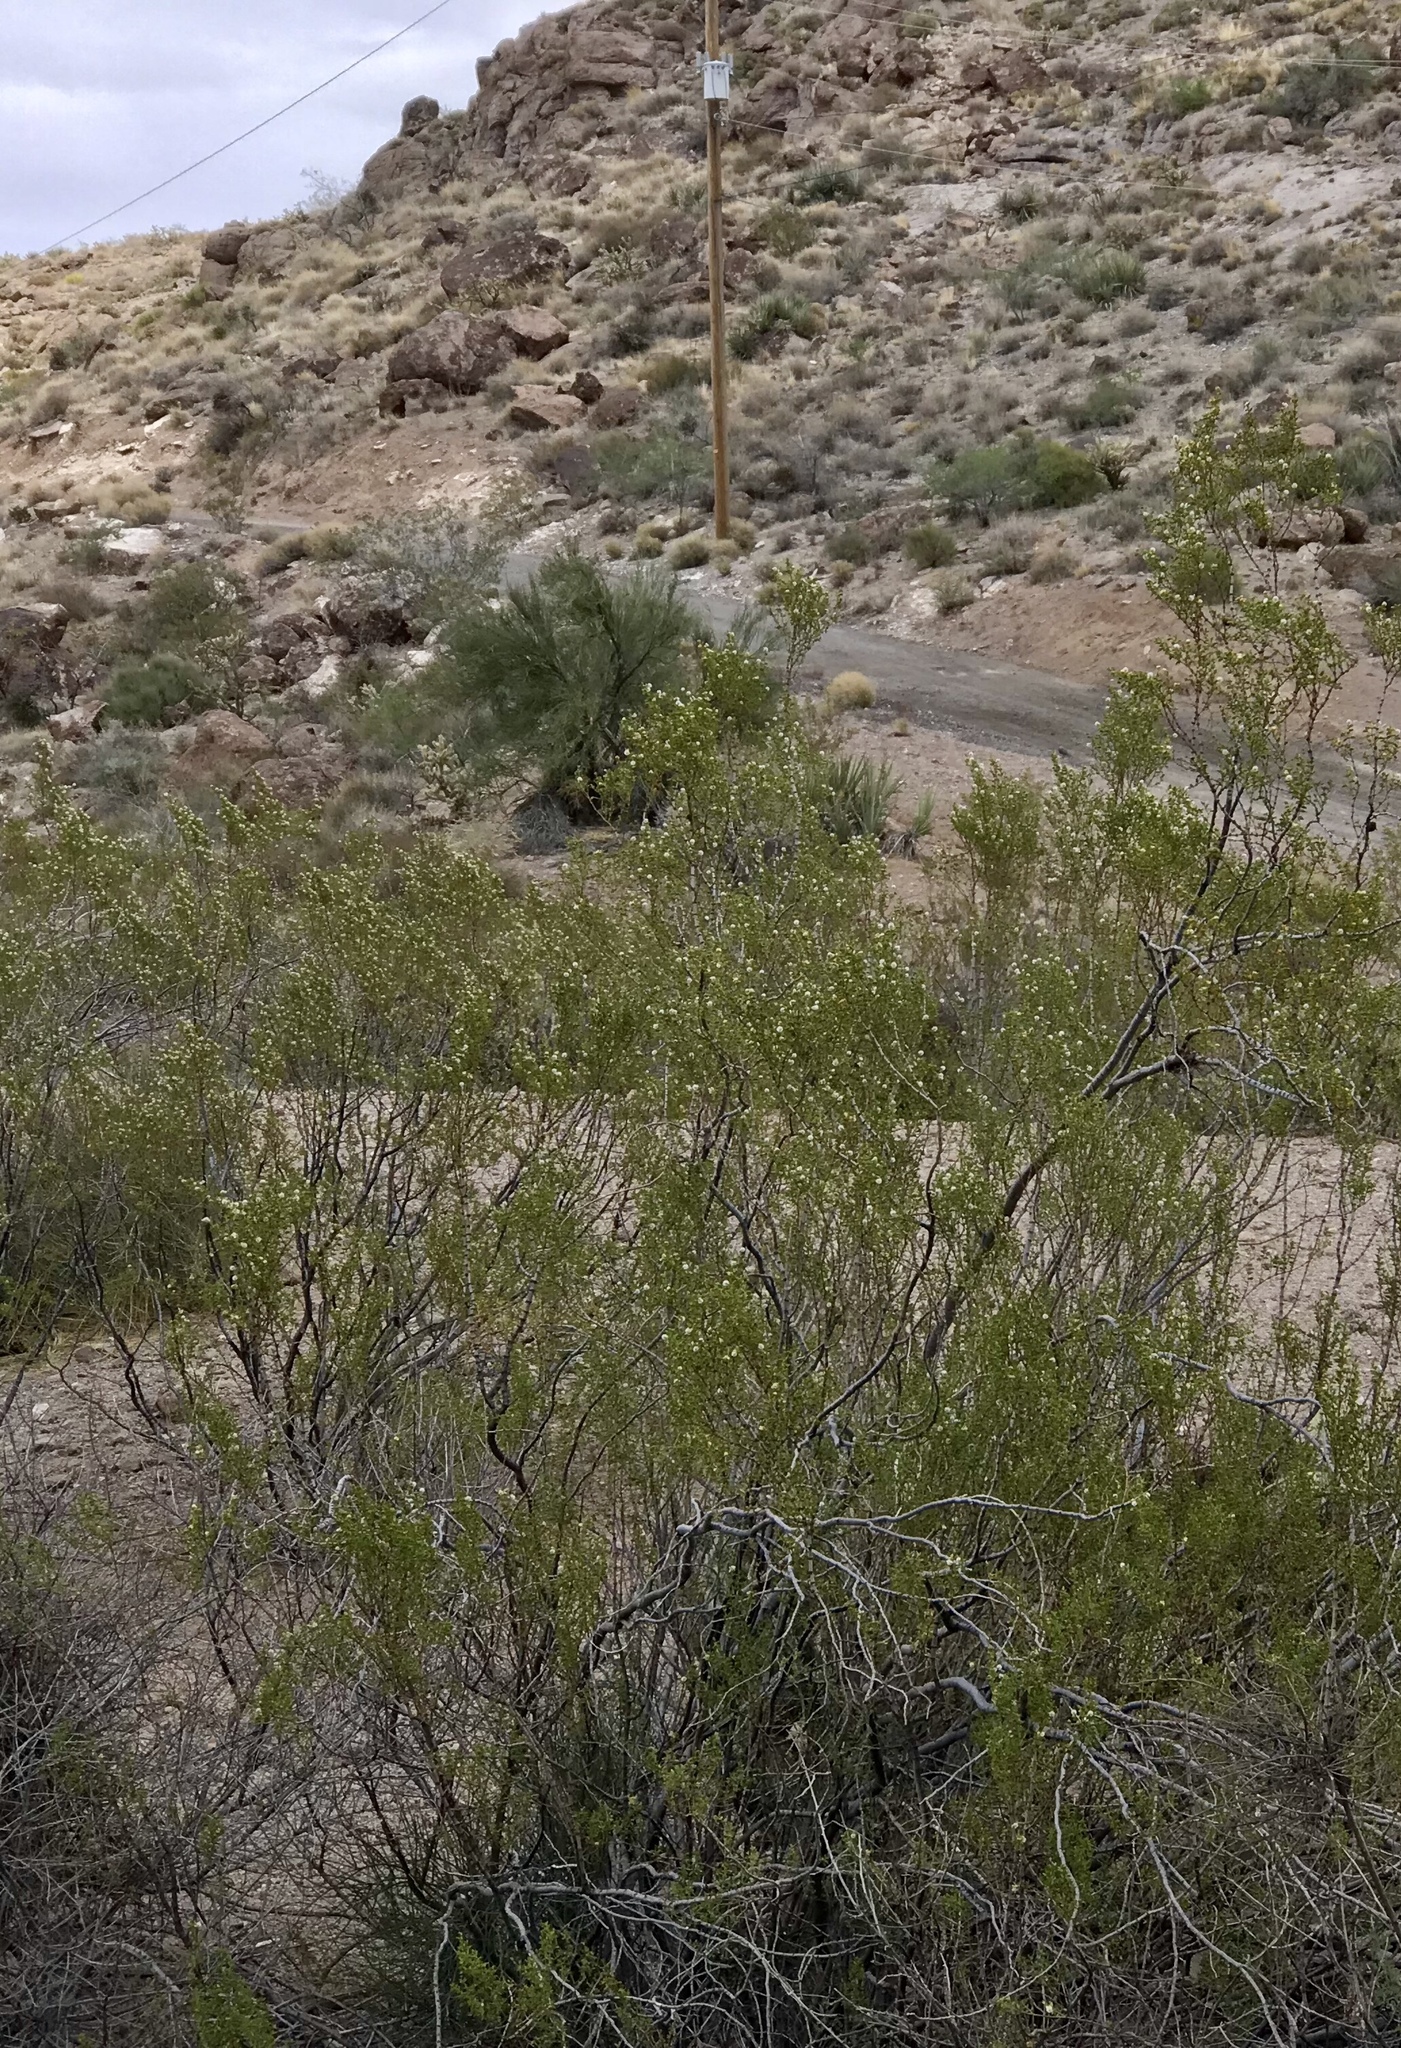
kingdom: Plantae
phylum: Tracheophyta
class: Magnoliopsida
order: Zygophyllales
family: Zygophyllaceae
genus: Larrea
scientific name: Larrea tridentata
